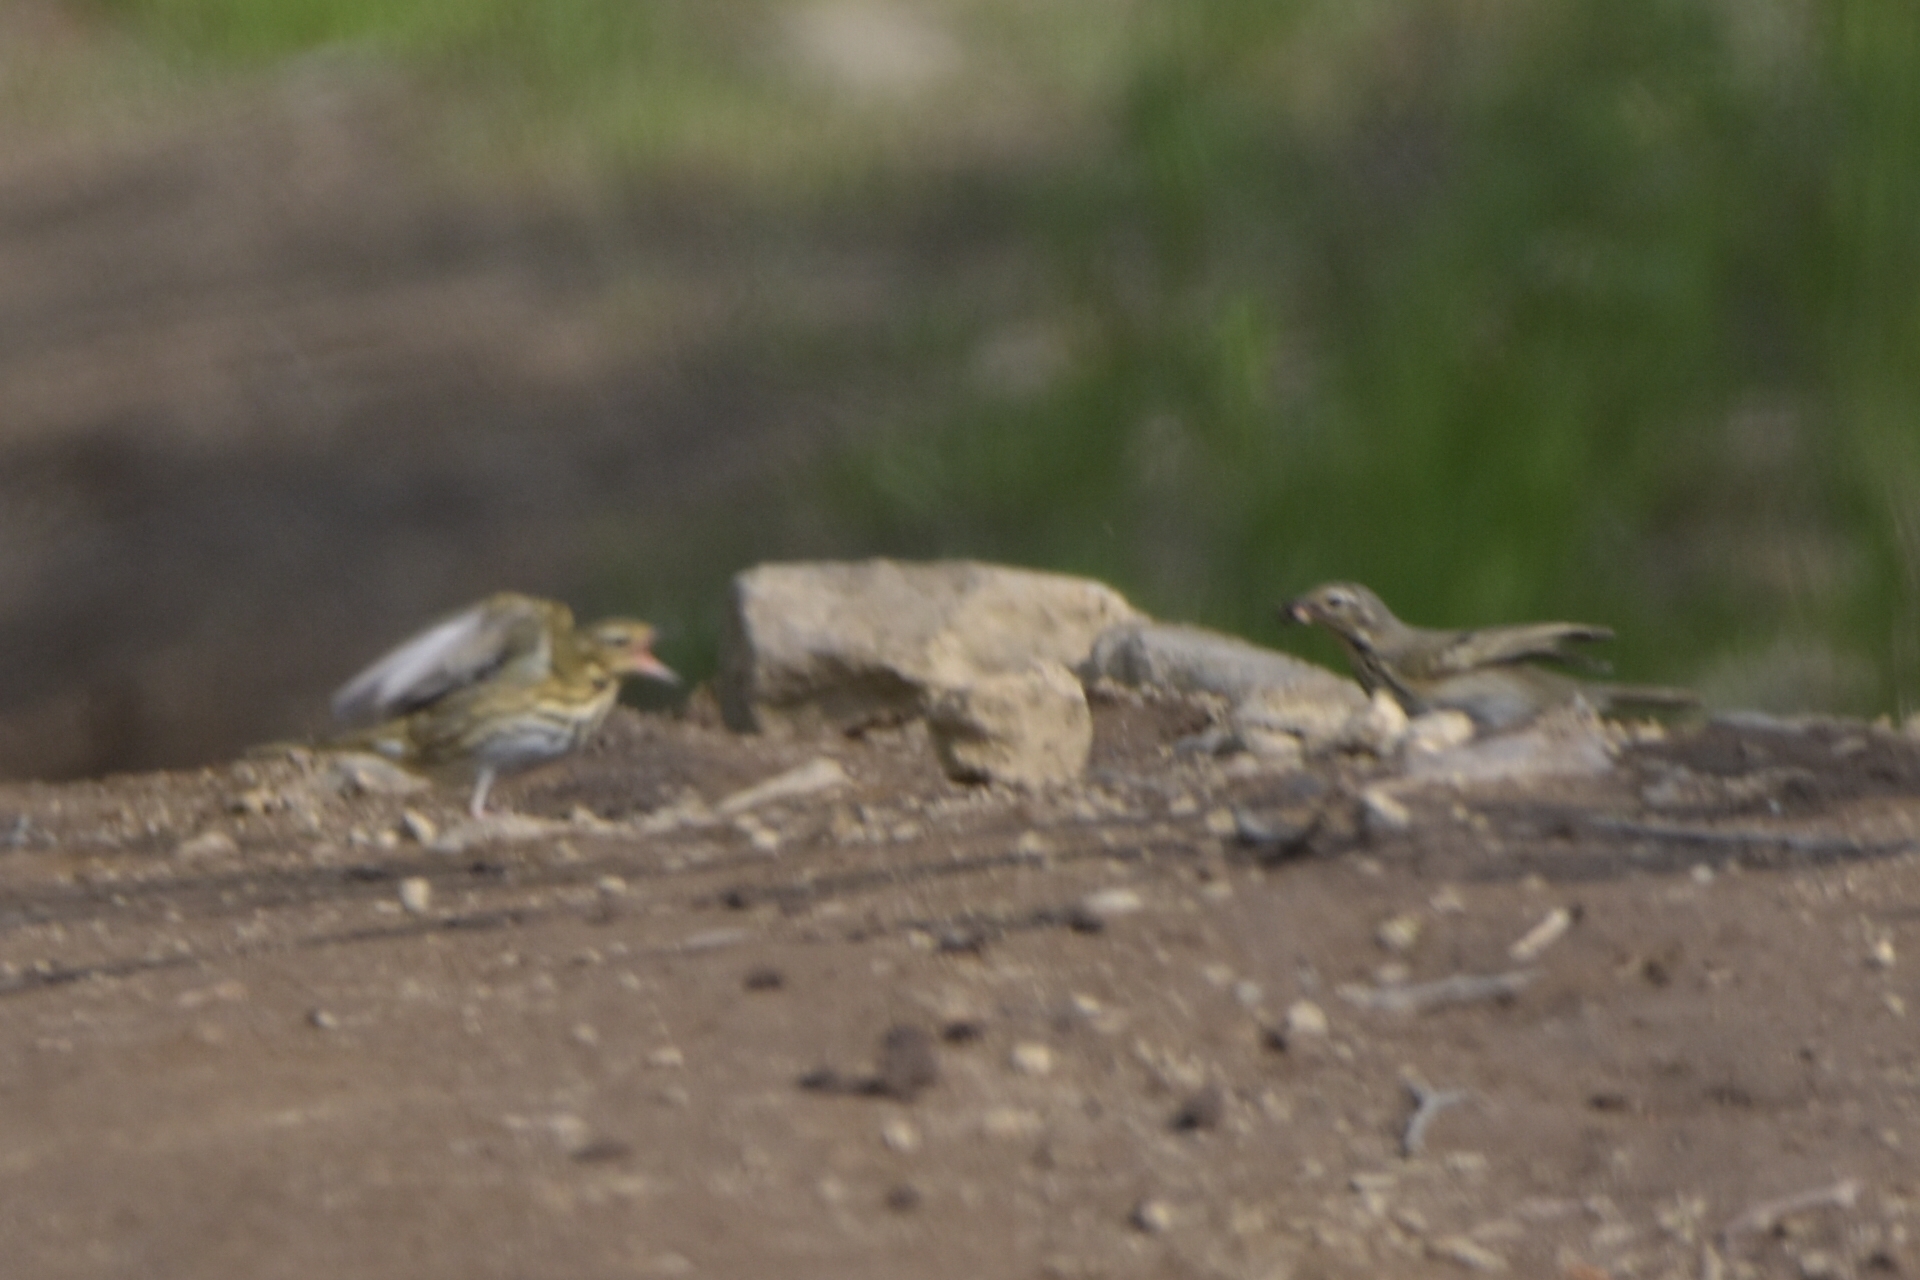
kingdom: Animalia
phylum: Chordata
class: Aves
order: Passeriformes
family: Motacillidae
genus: Anthus
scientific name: Anthus hodgsoni
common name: Olive-backed pipit
